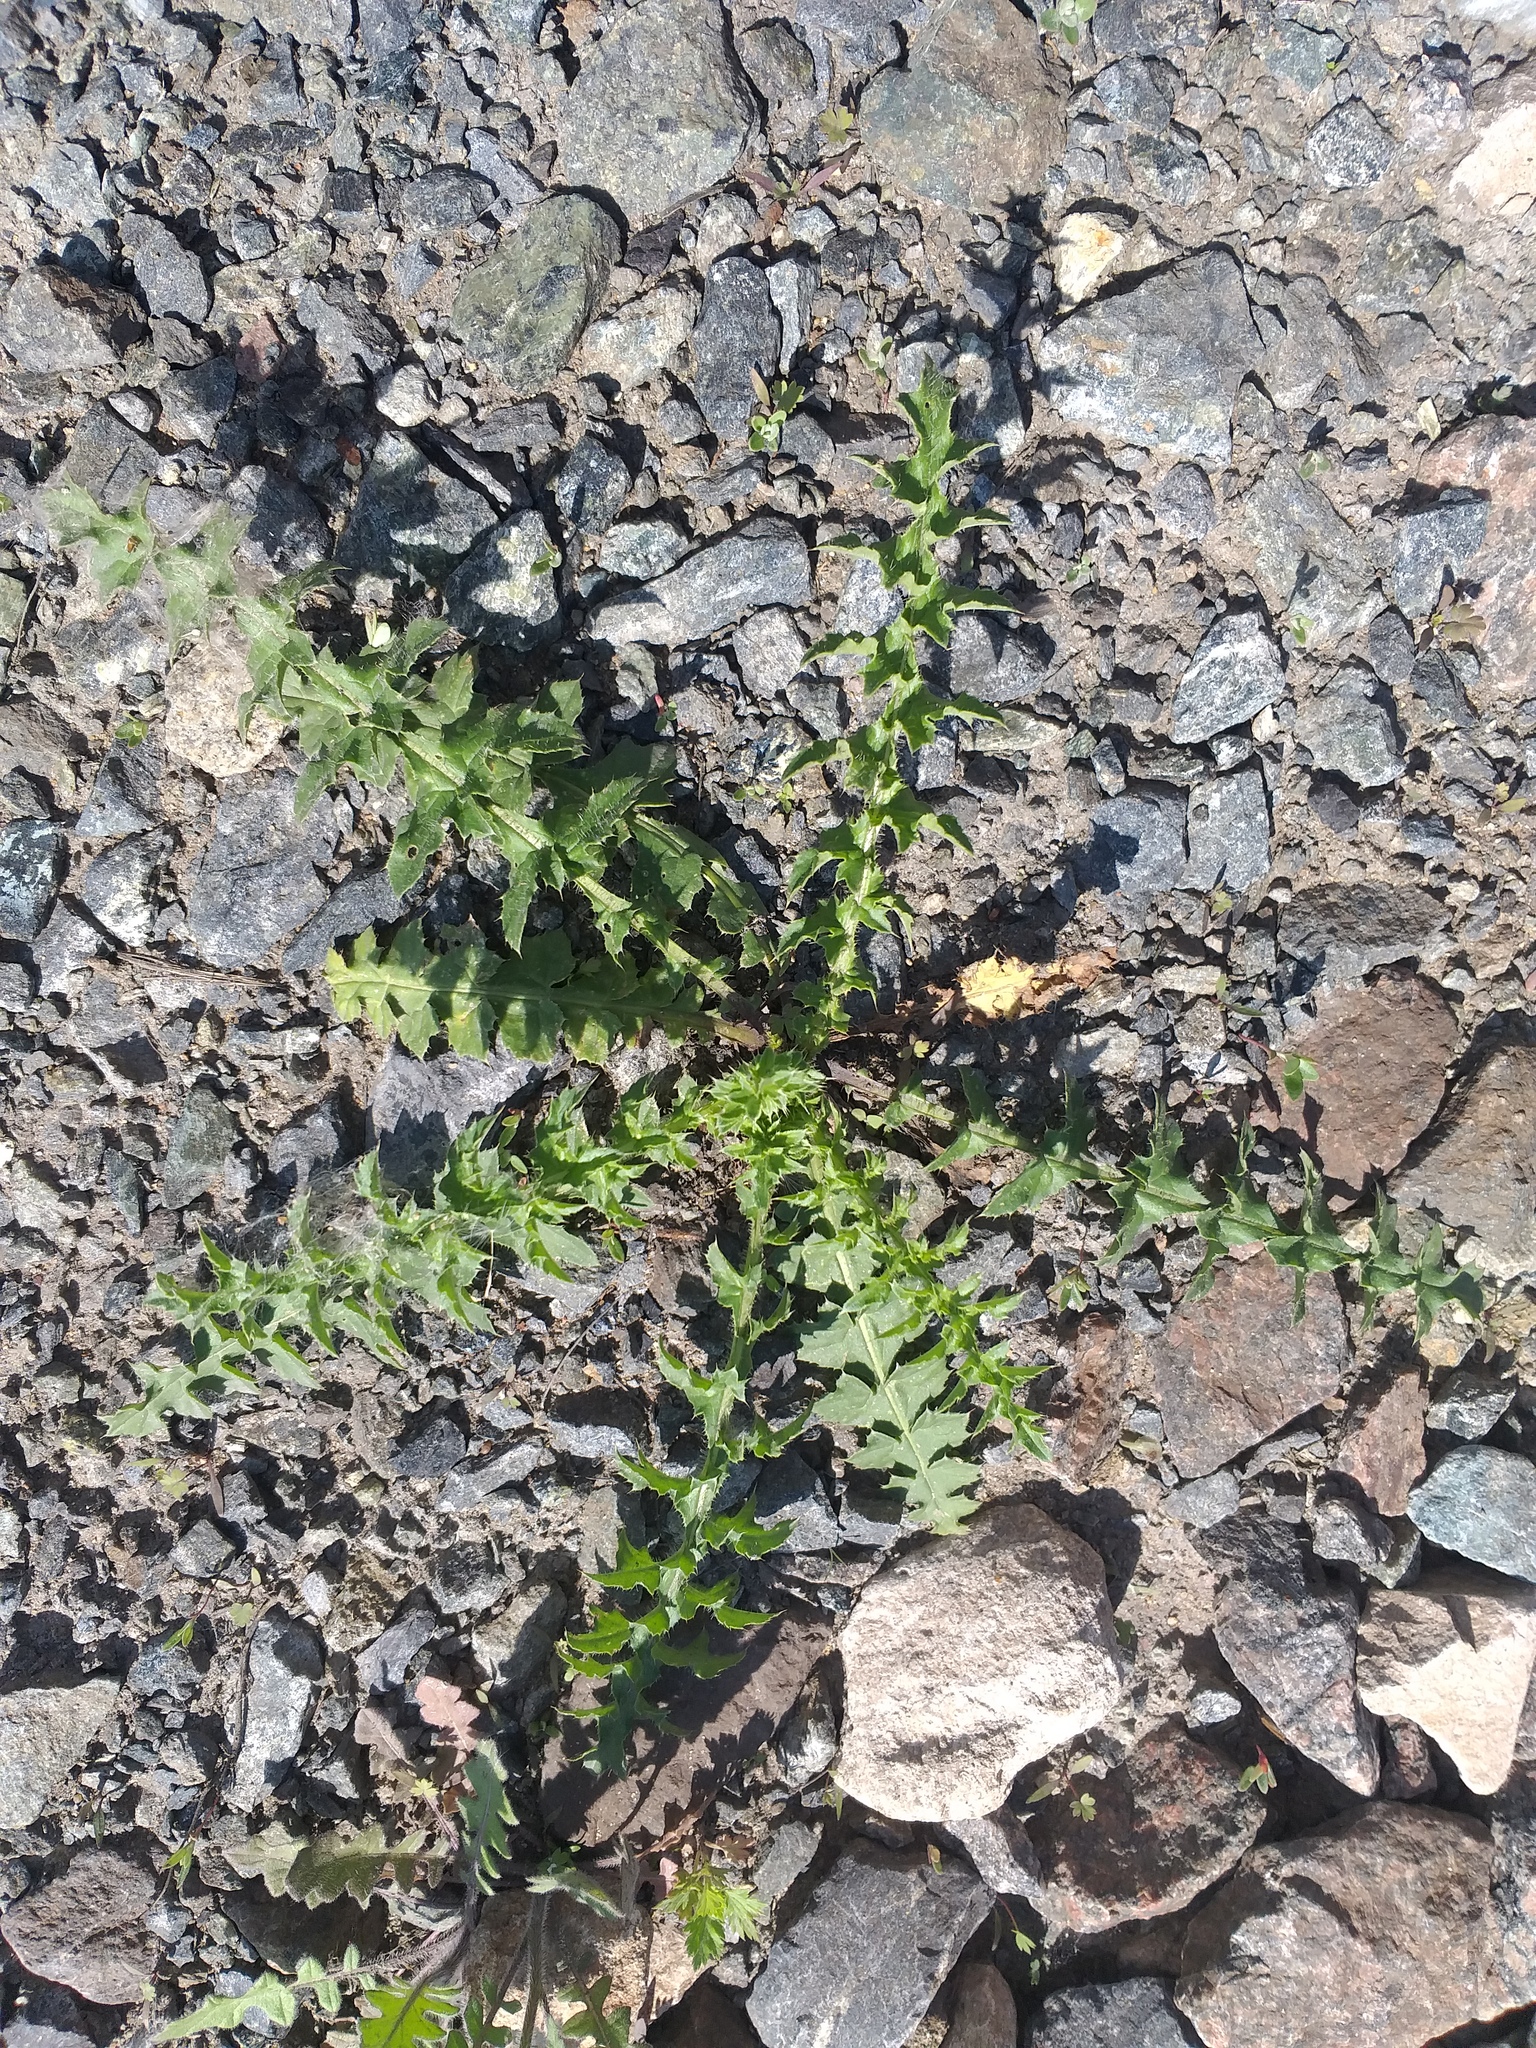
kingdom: Plantae
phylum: Tracheophyta
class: Magnoliopsida
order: Asterales
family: Asteraceae
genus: Carduus
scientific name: Carduus acanthoides
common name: Plumeless thistle
